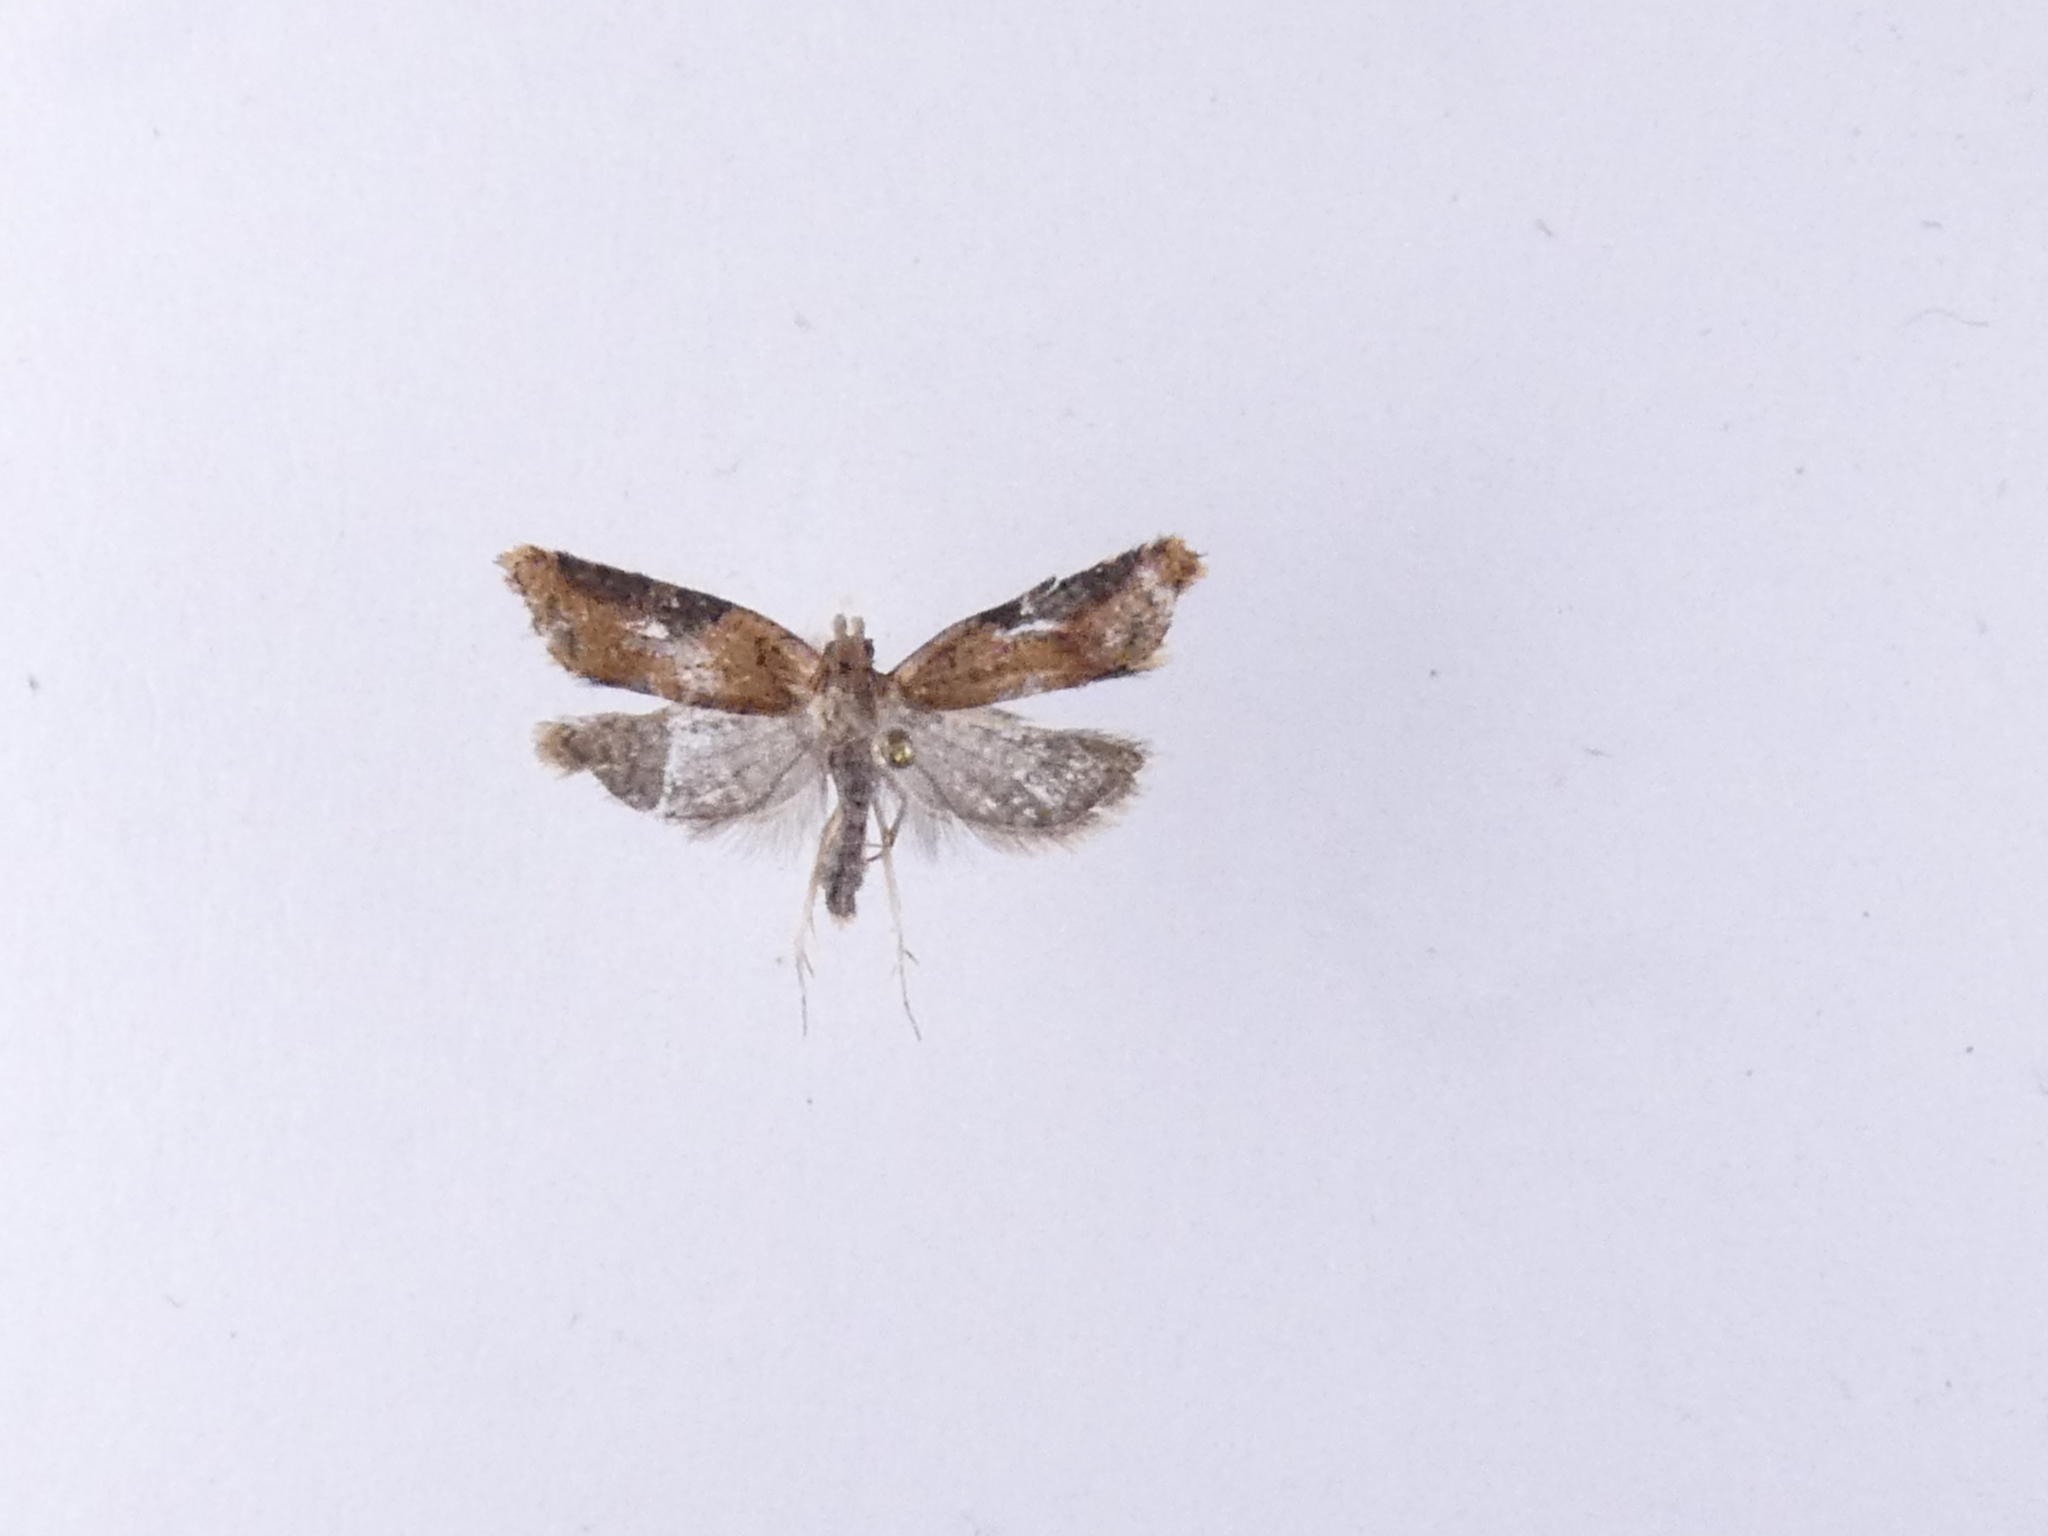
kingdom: Animalia
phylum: Arthropoda
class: Insecta
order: Lepidoptera
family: Tortricidae
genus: Capua
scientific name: Capua semiferana
